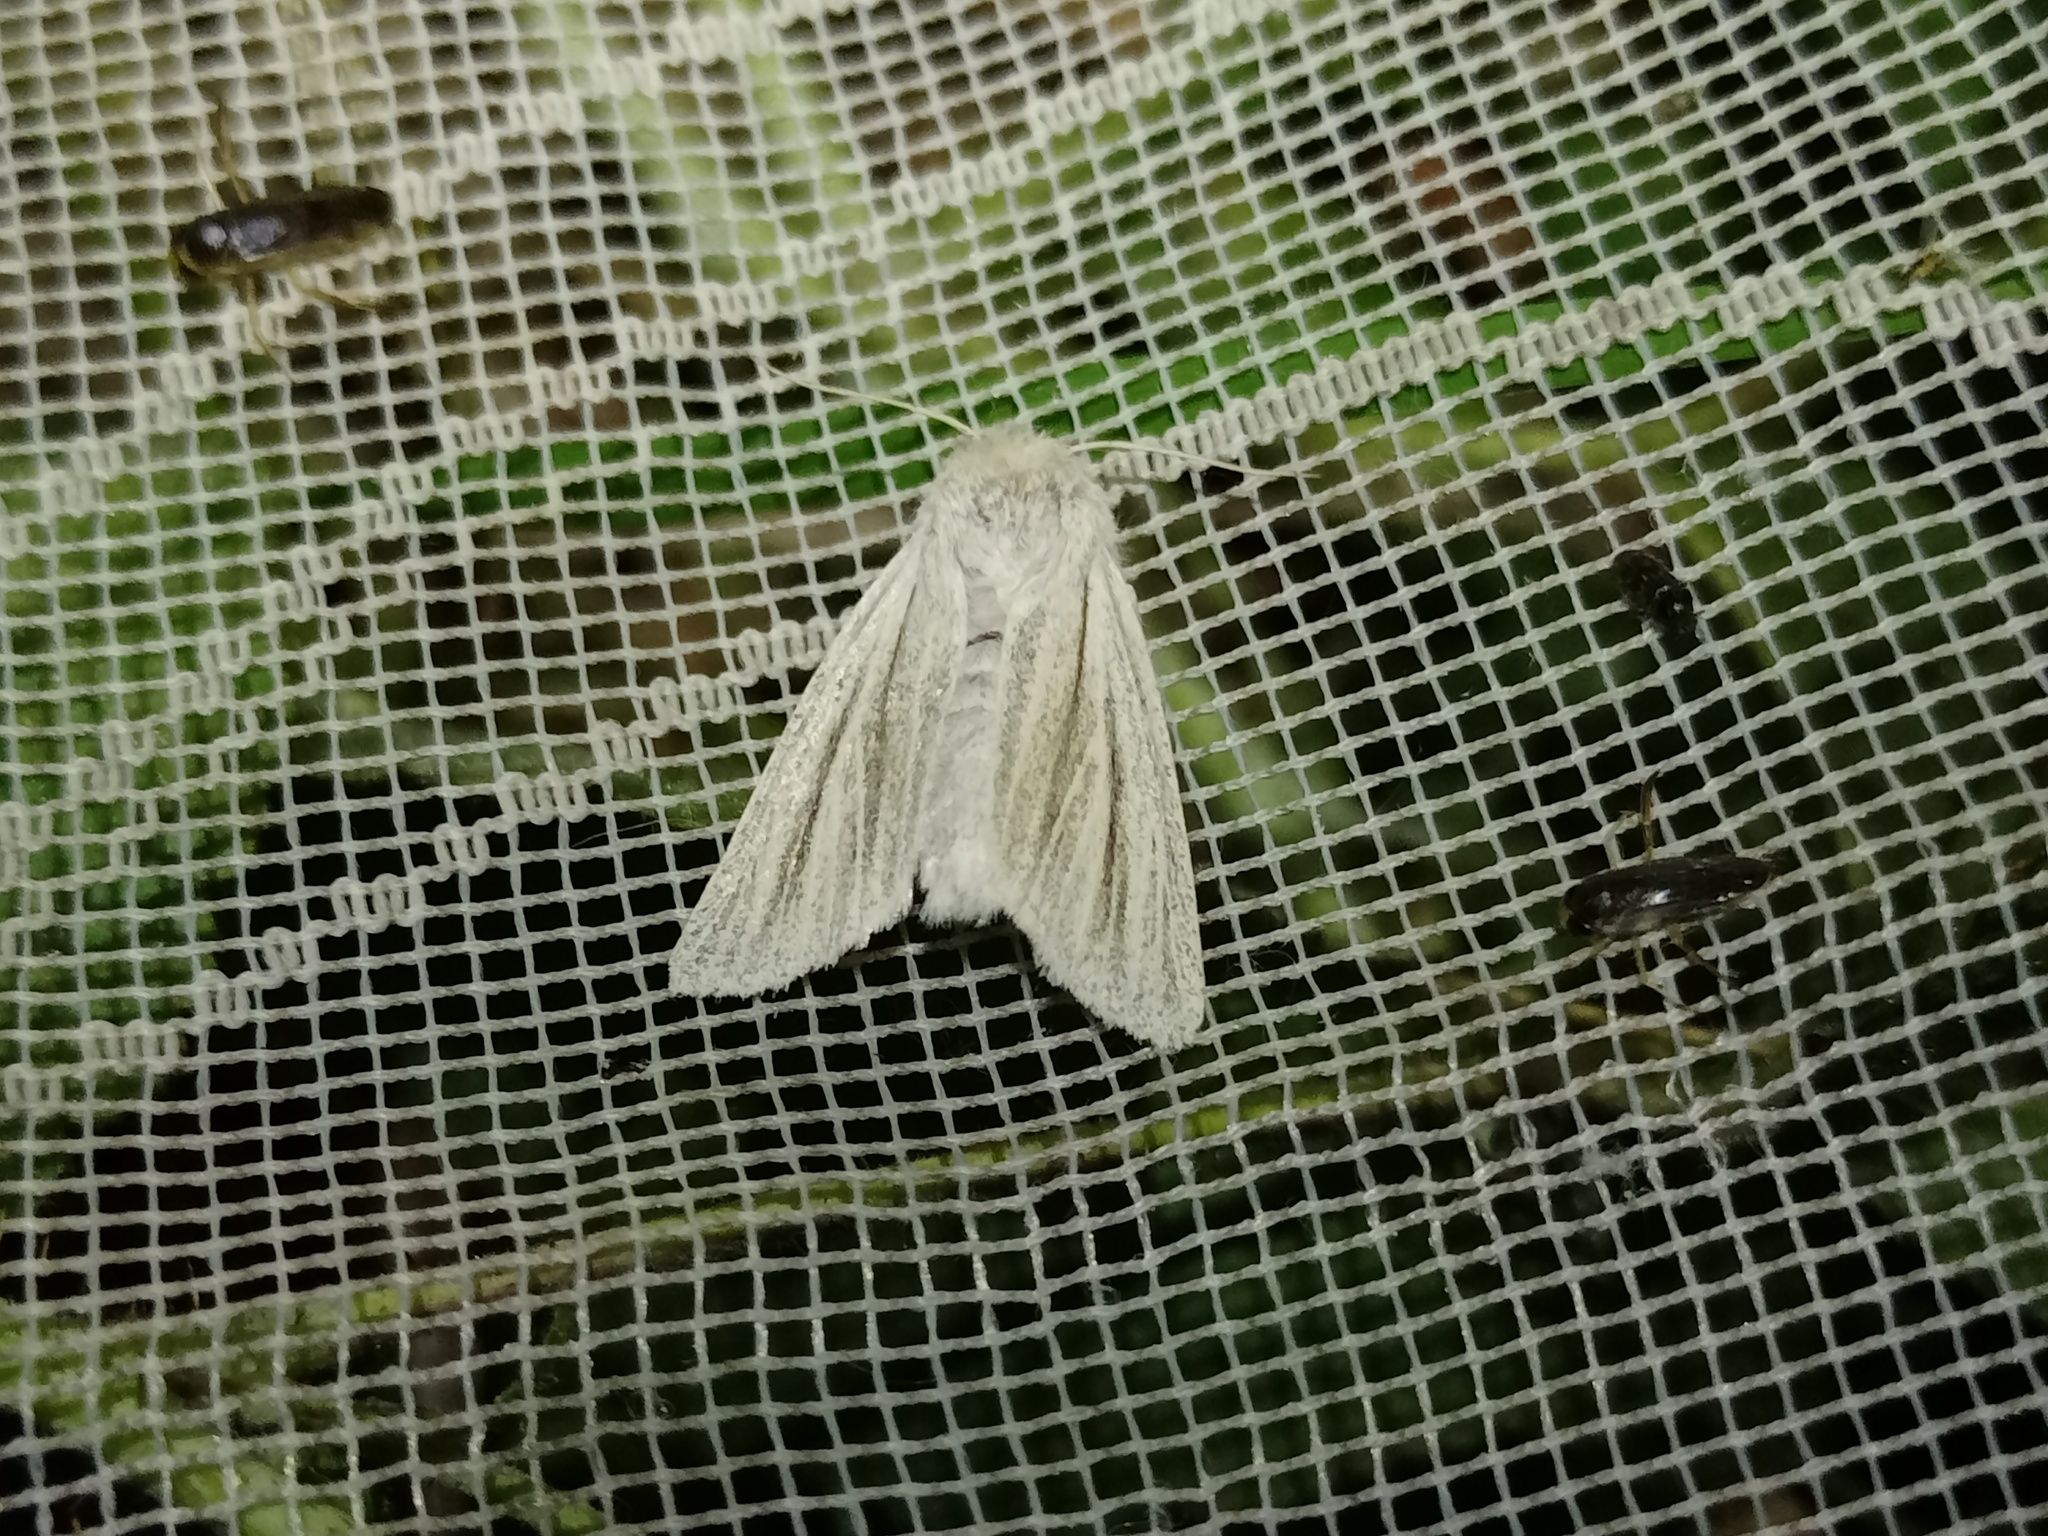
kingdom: Animalia
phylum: Arthropoda
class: Insecta
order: Lepidoptera
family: Noctuidae
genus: Simyra
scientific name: Simyra albovenosa
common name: Reed dagger
